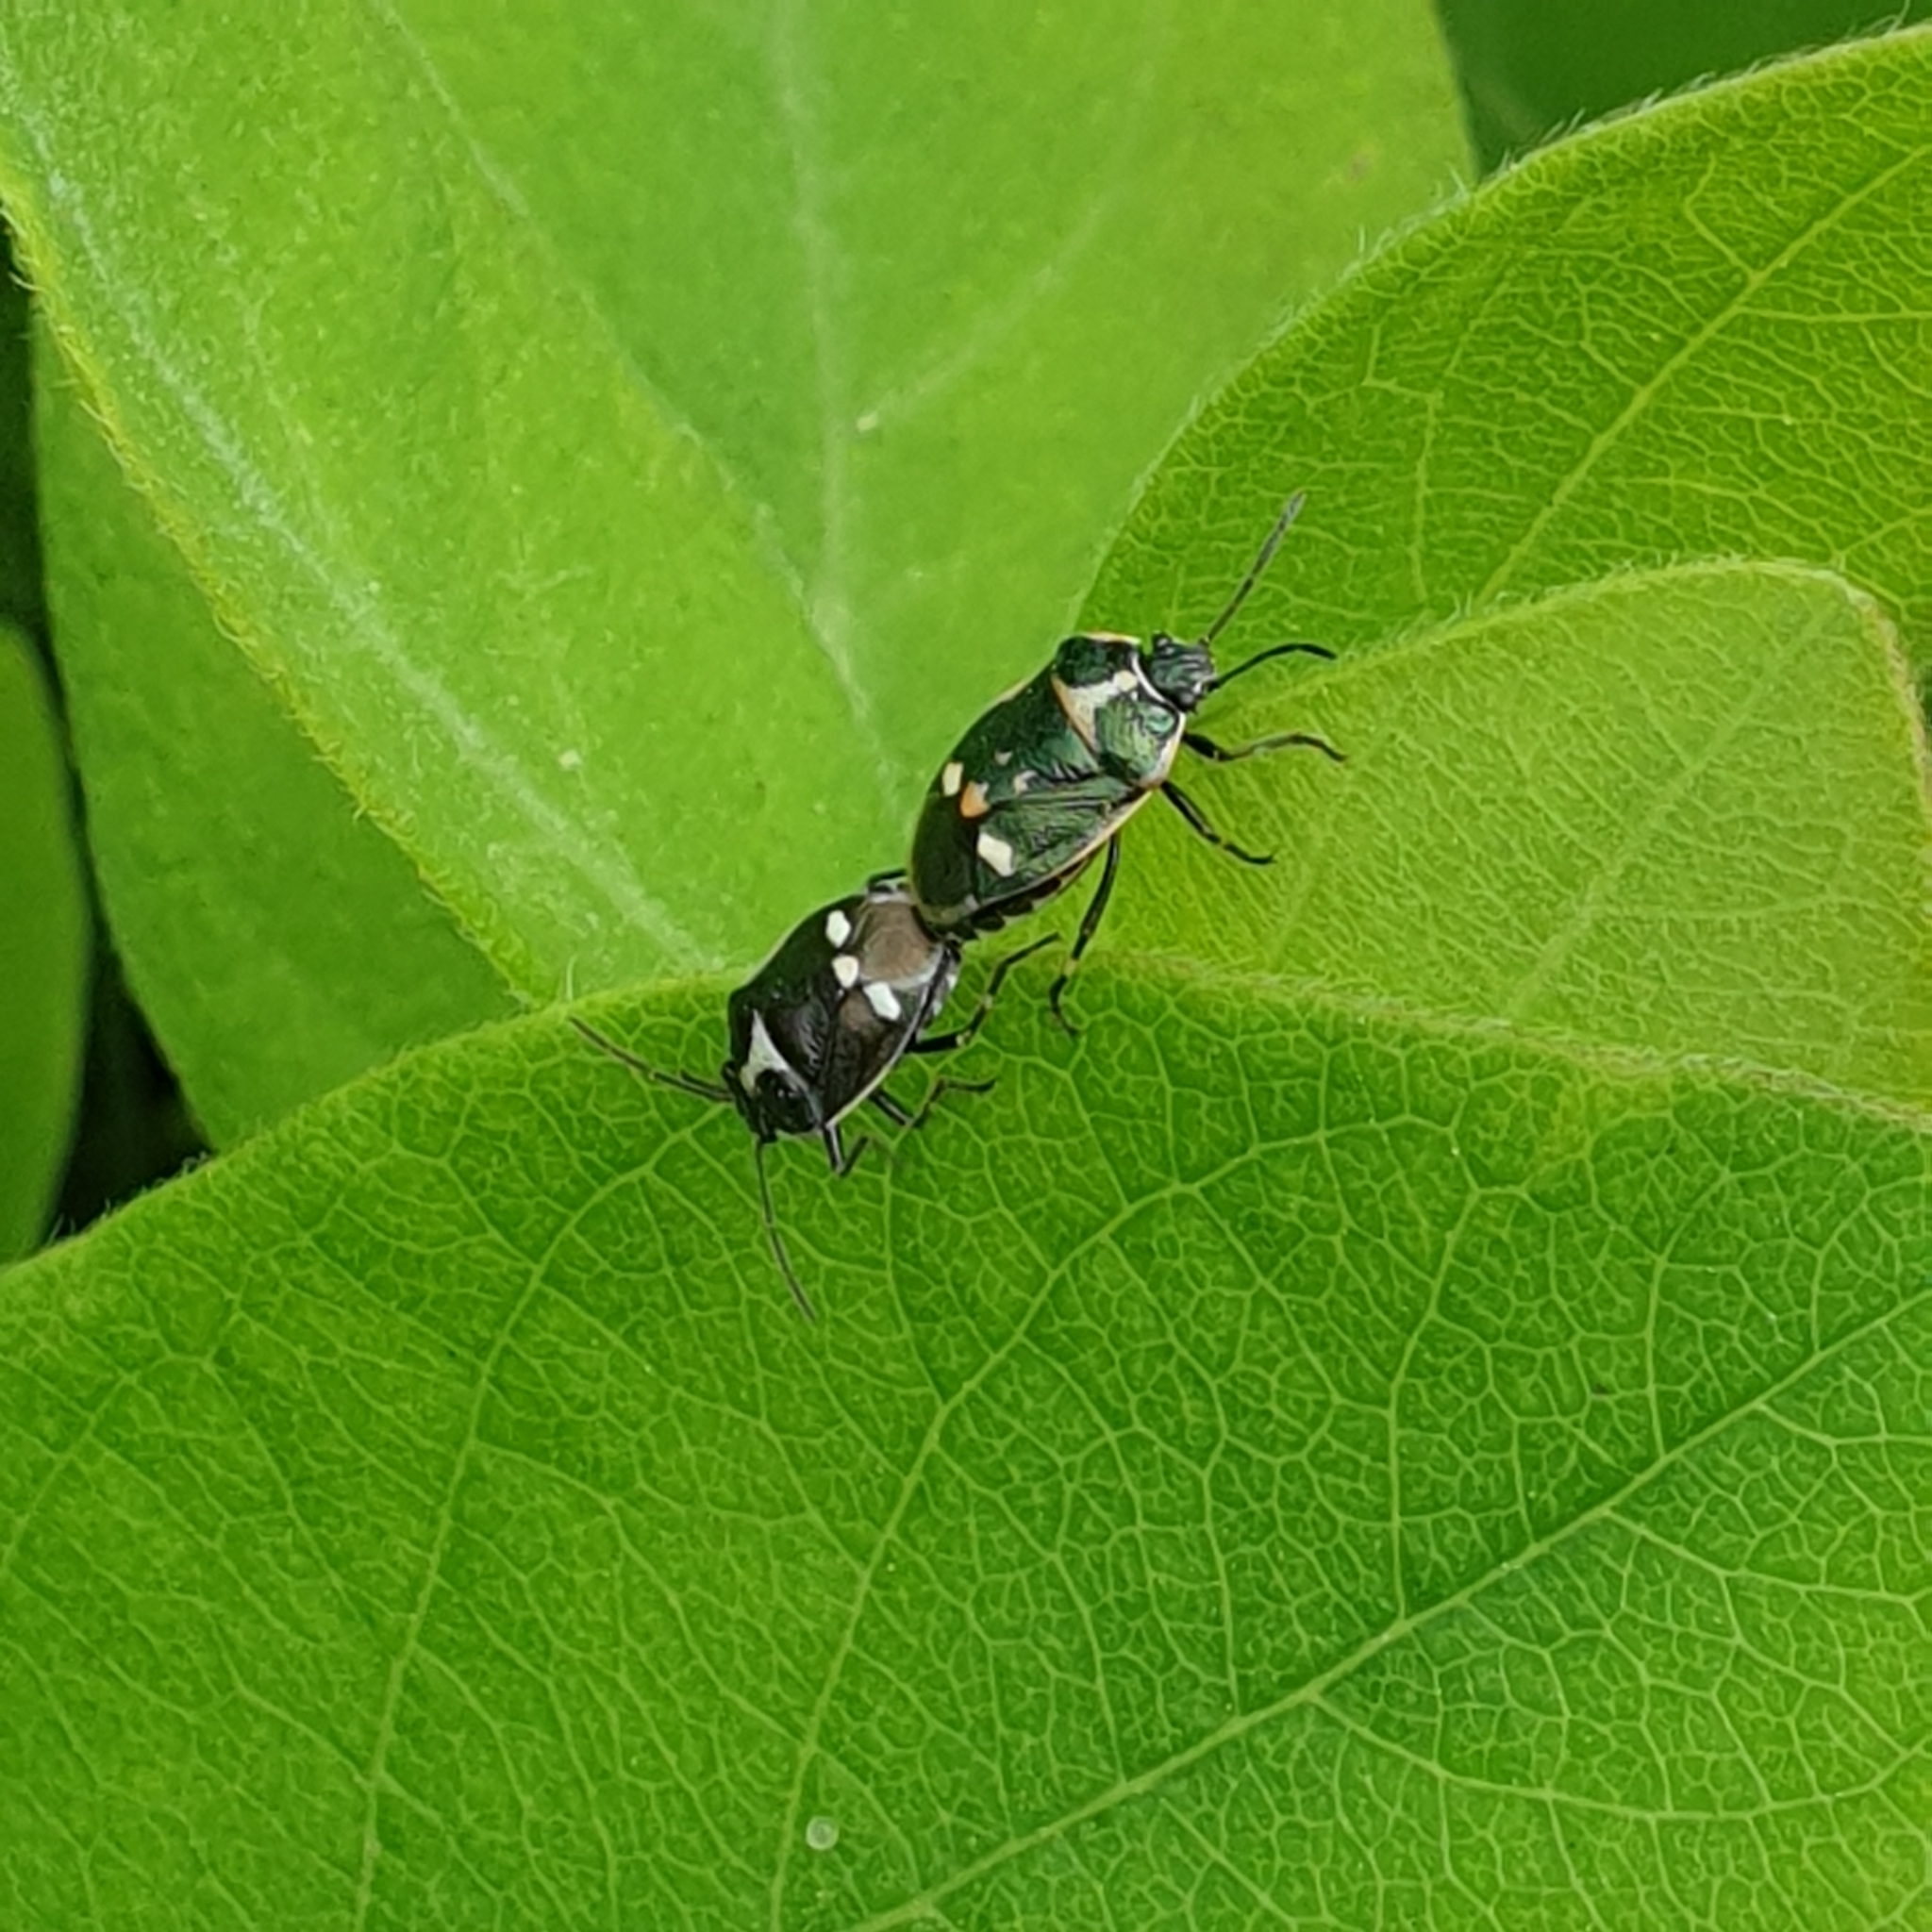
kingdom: Animalia
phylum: Arthropoda
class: Insecta
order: Hemiptera
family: Pentatomidae
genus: Eurydema
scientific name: Eurydema oleracea
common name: Cabbage bug
